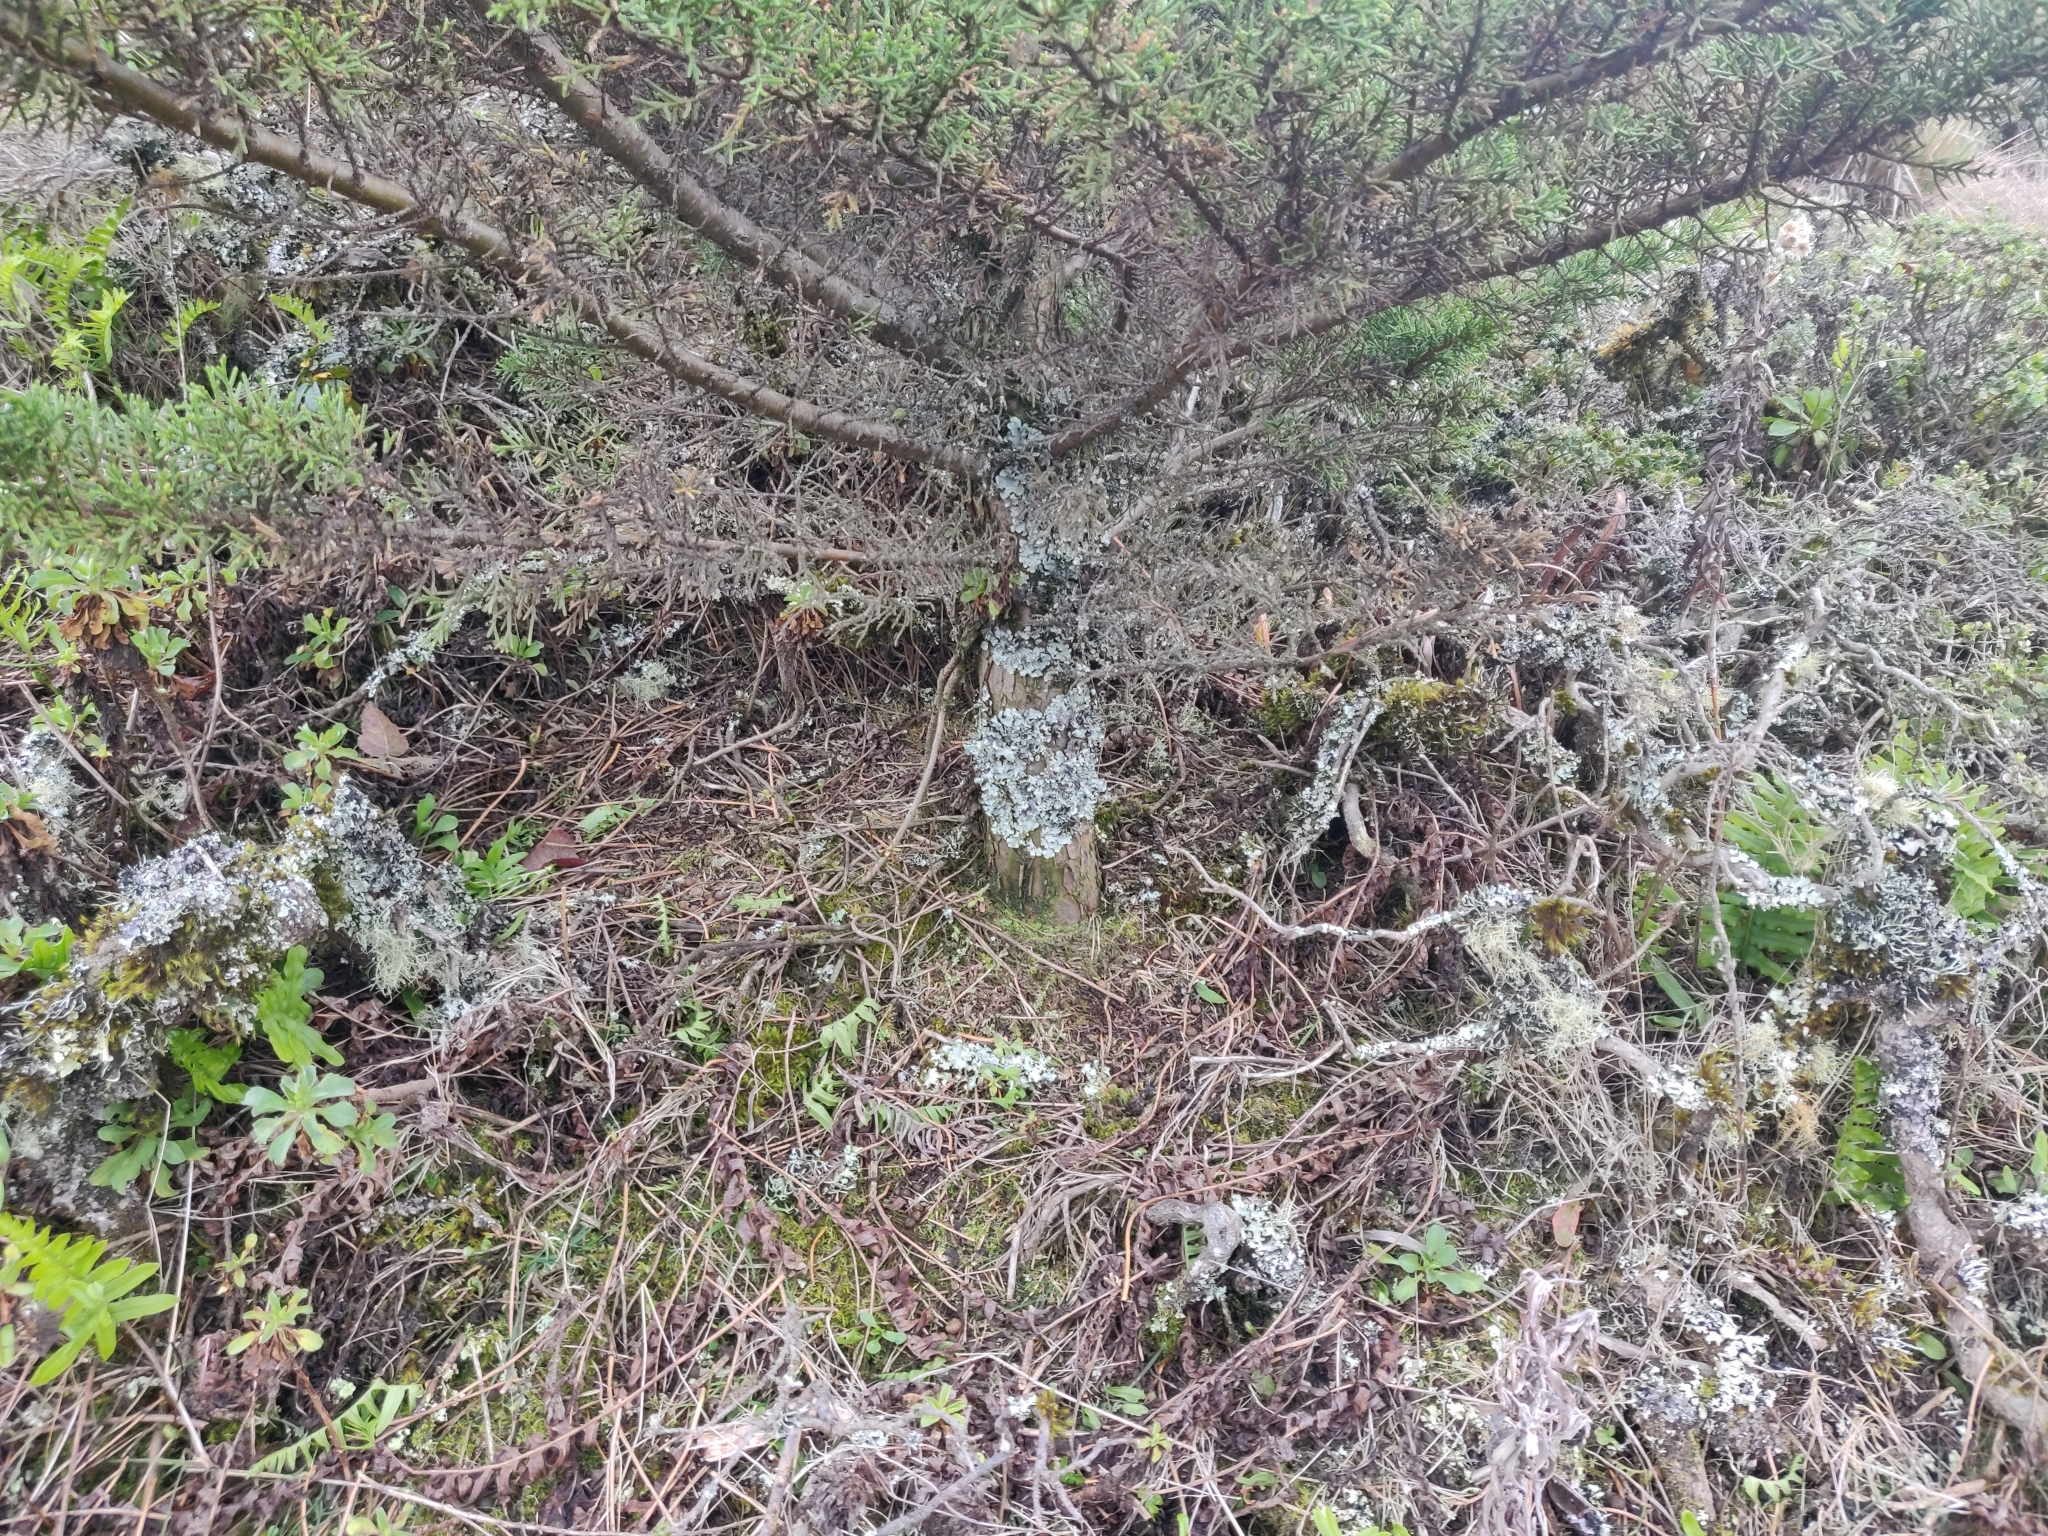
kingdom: Plantae
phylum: Tracheophyta
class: Pinopsida
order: Pinales
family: Cupressaceae
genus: Cupressus
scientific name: Cupressus macrocarpa
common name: Monterey cypress
